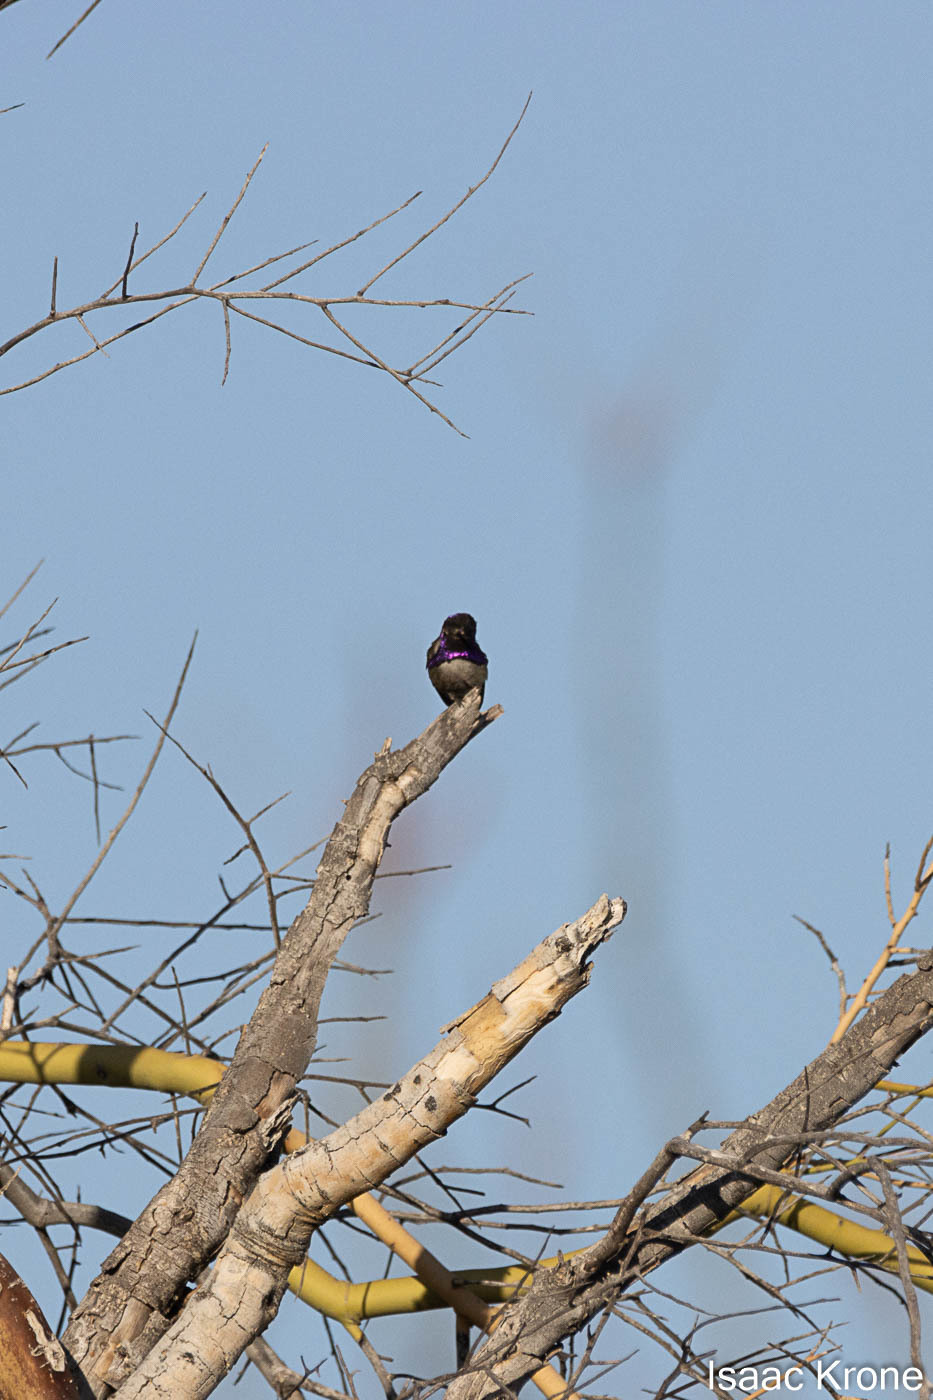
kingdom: Animalia
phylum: Chordata
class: Aves
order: Apodiformes
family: Trochilidae
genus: Calypte
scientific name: Calypte costae
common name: Costa's hummingbird
